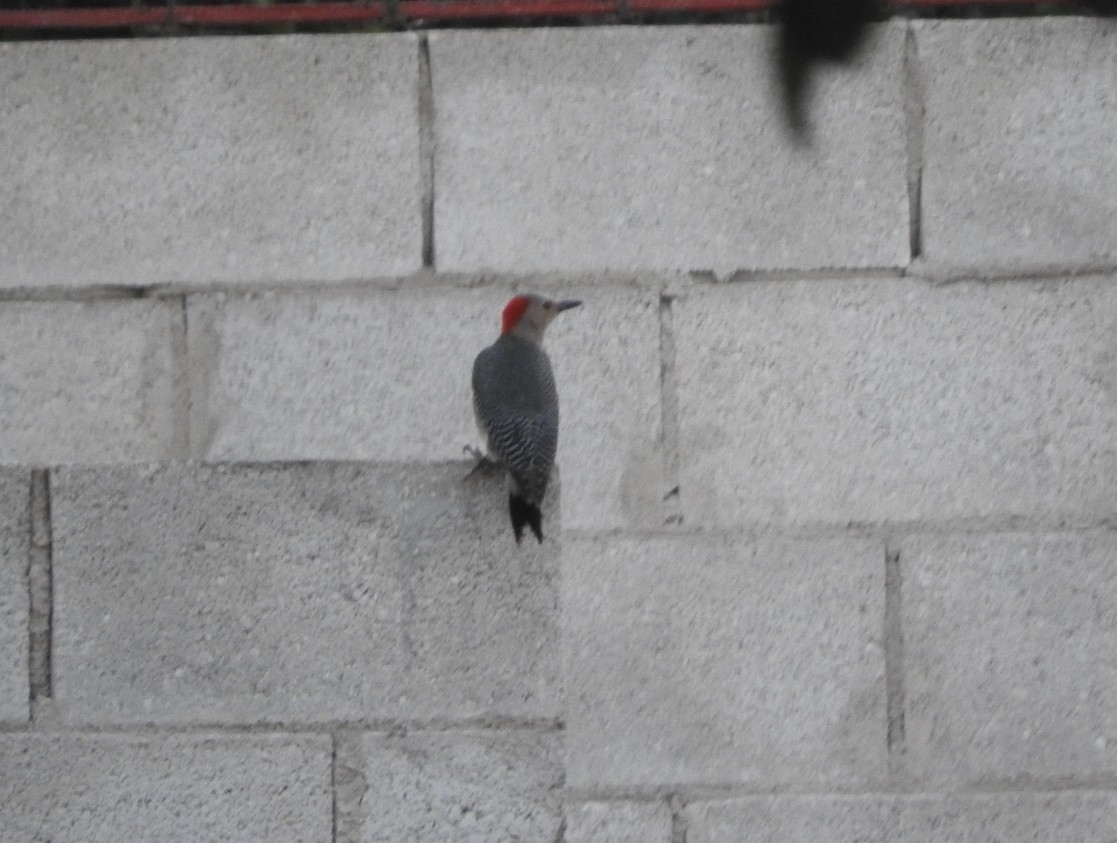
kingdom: Animalia
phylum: Chordata
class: Aves
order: Piciformes
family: Picidae
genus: Melanerpes
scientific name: Melanerpes aurifrons
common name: Golden-fronted woodpecker
